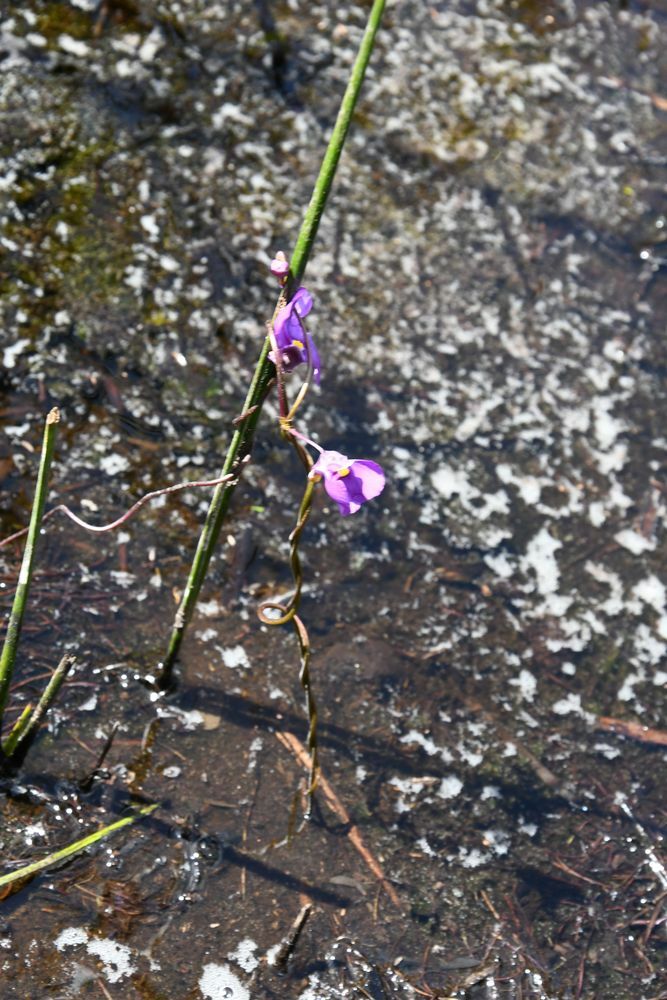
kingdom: Plantae
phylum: Tracheophyta
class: Magnoliopsida
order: Lamiales
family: Lentibulariaceae
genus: Utricularia
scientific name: Utricularia volubilis
